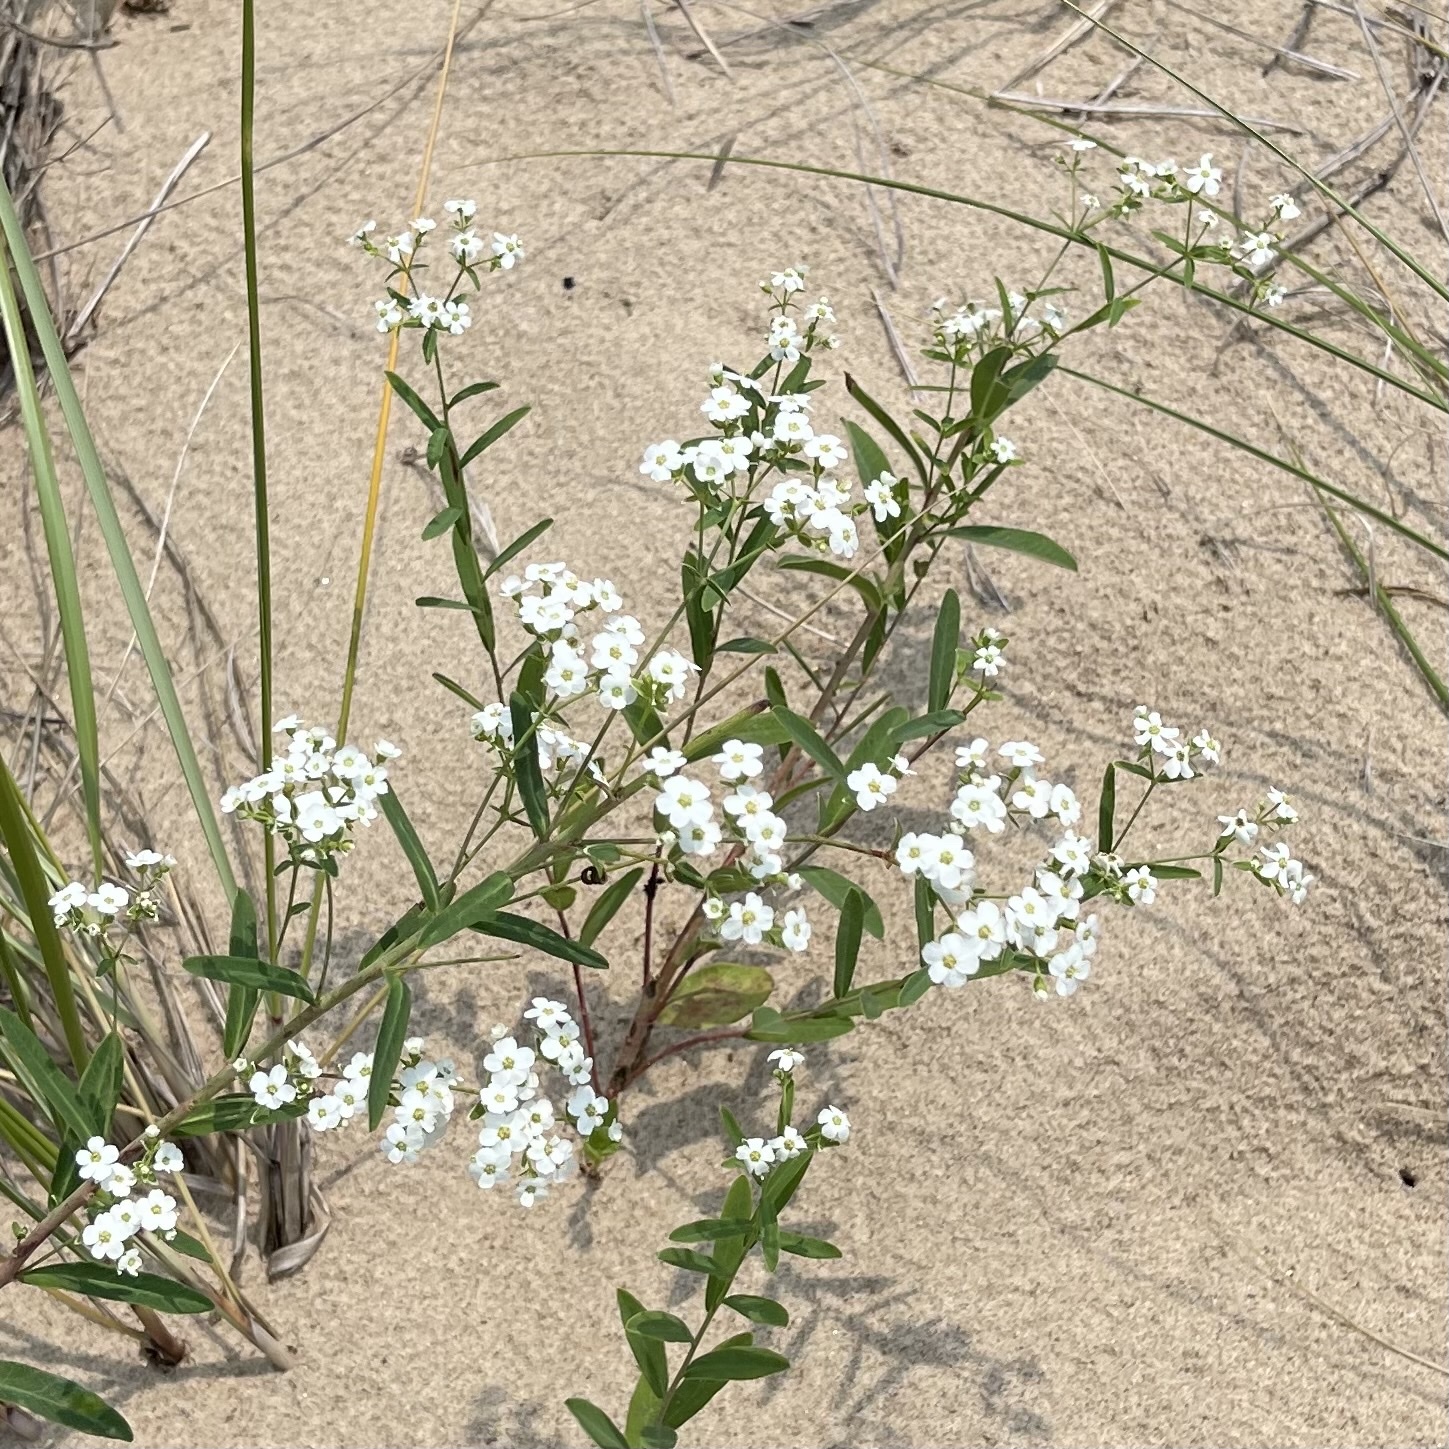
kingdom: Plantae
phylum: Tracheophyta
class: Magnoliopsida
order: Malpighiales
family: Euphorbiaceae
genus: Euphorbia
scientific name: Euphorbia corollata
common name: Flowering spurge
